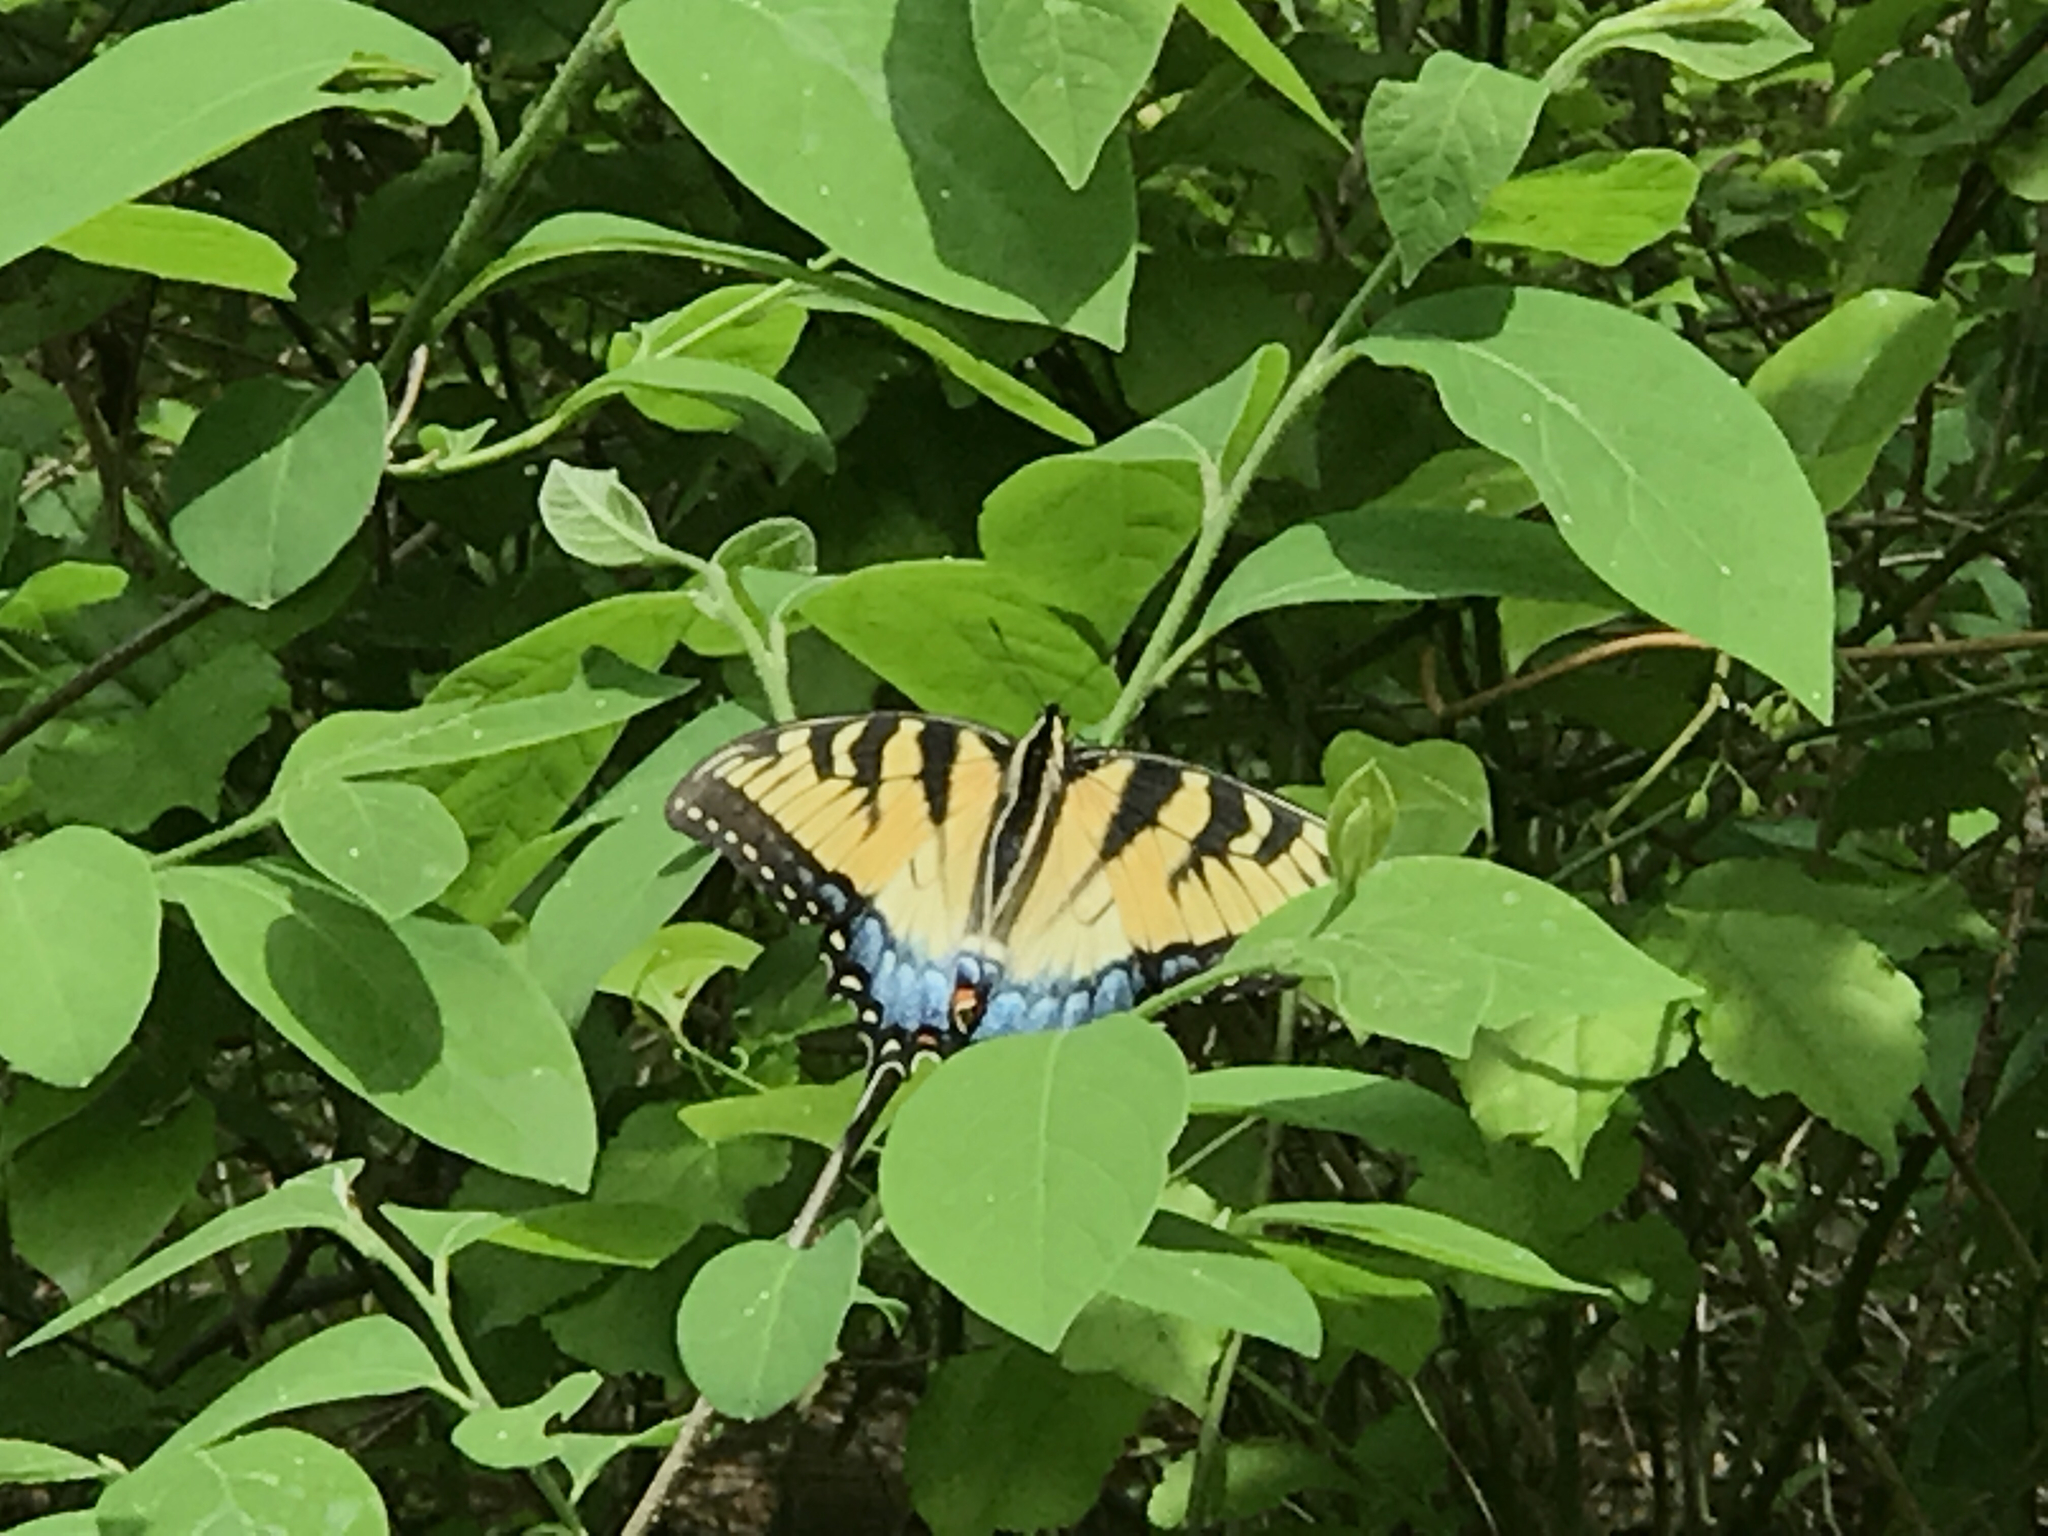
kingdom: Animalia
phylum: Arthropoda
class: Insecta
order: Lepidoptera
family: Papilionidae
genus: Papilio
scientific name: Papilio glaucus
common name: Tiger swallowtail
